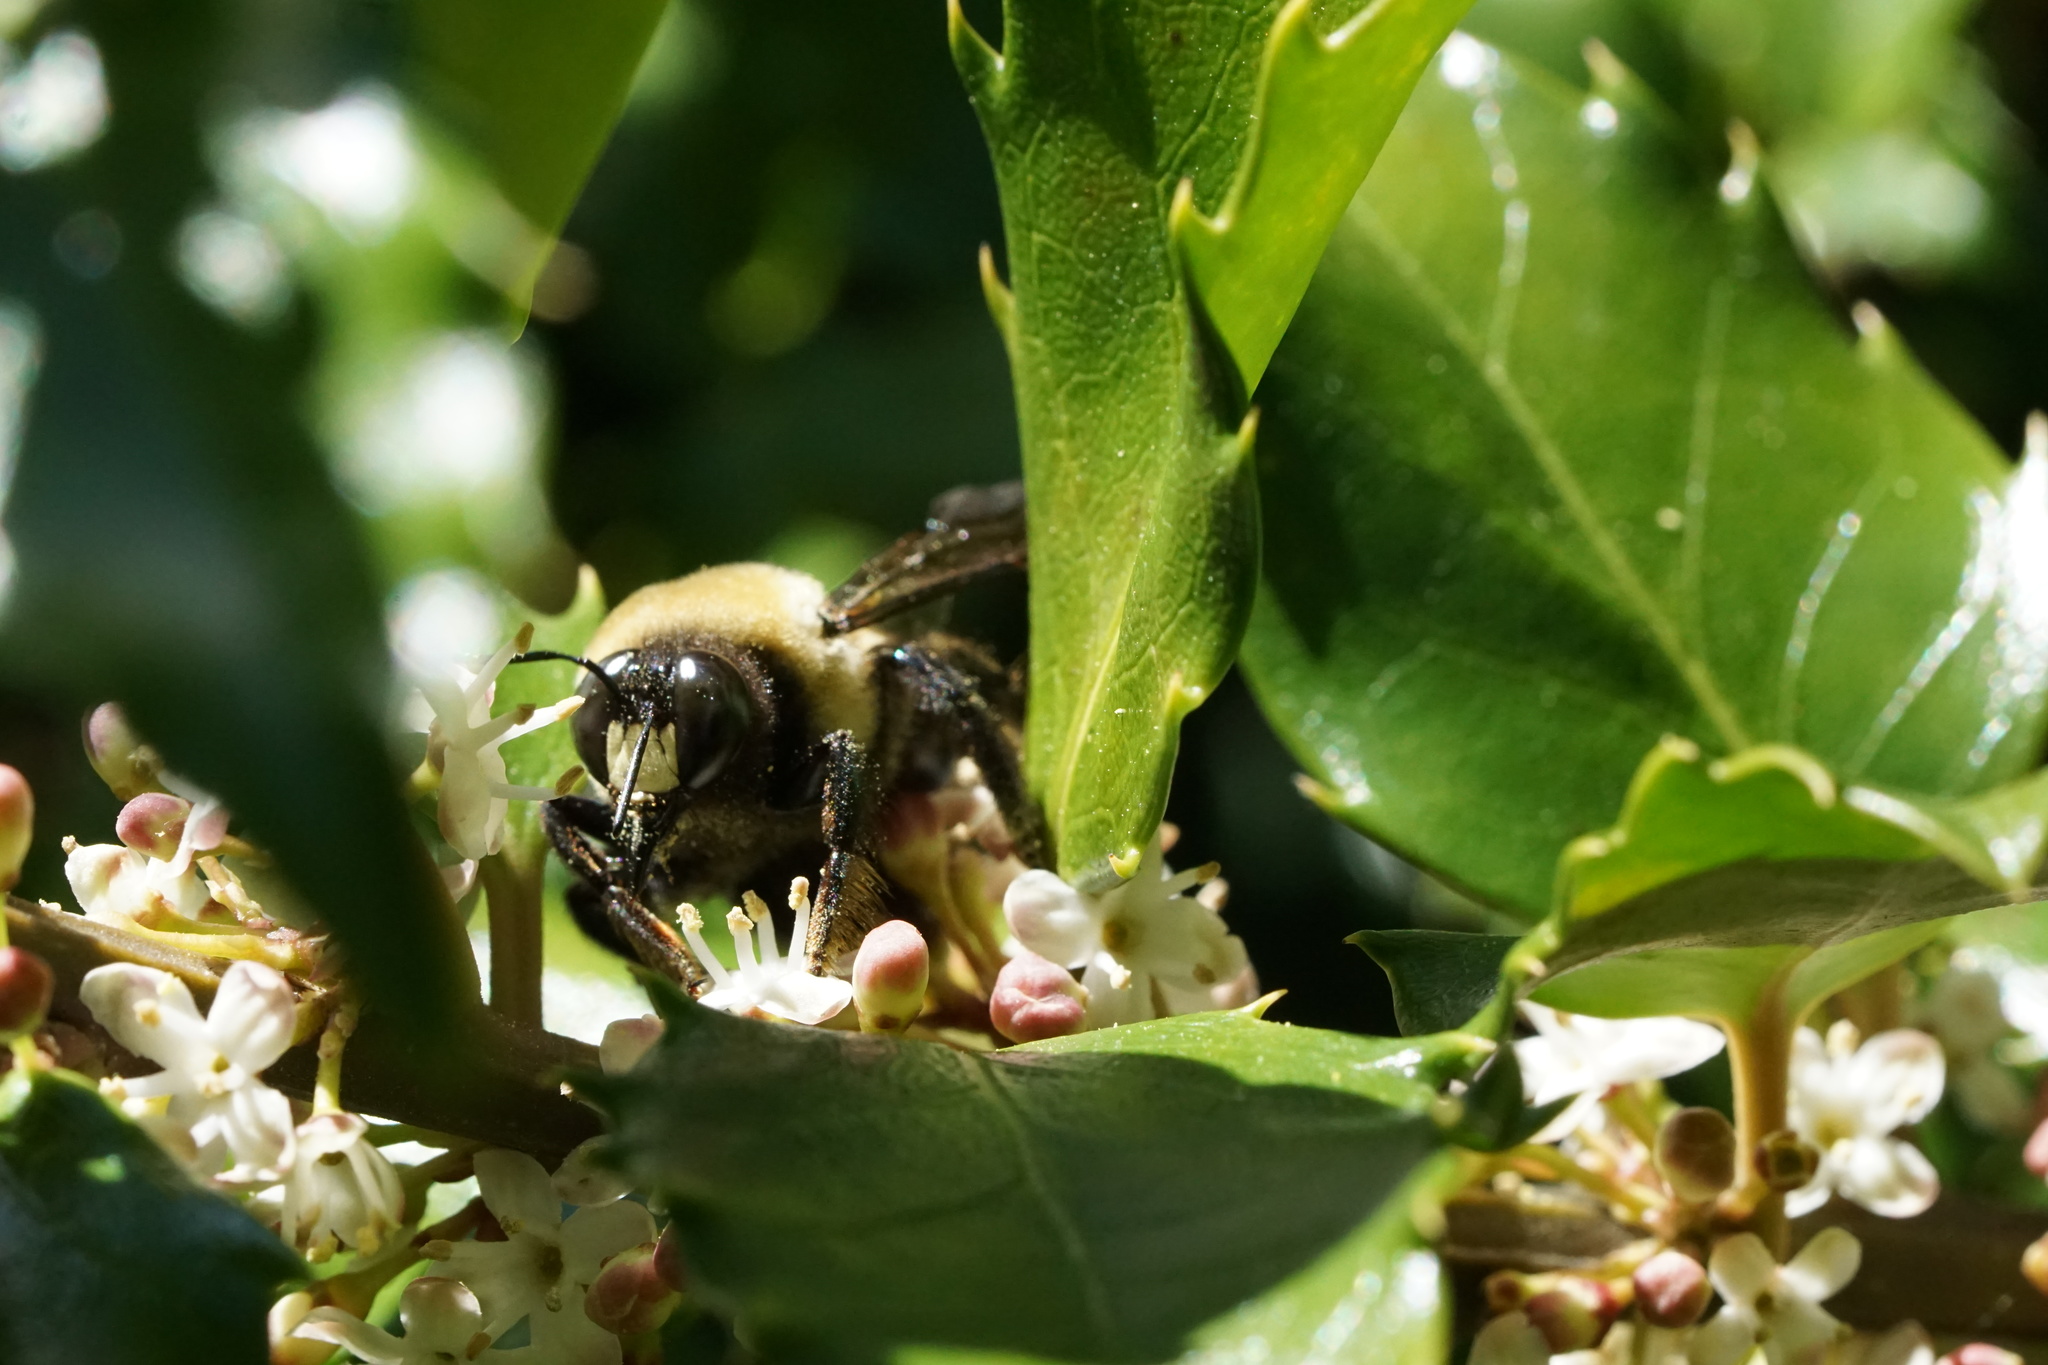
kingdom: Animalia
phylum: Arthropoda
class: Insecta
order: Hymenoptera
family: Apidae
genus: Xylocopa
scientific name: Xylocopa virginica
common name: Carpenter bee
